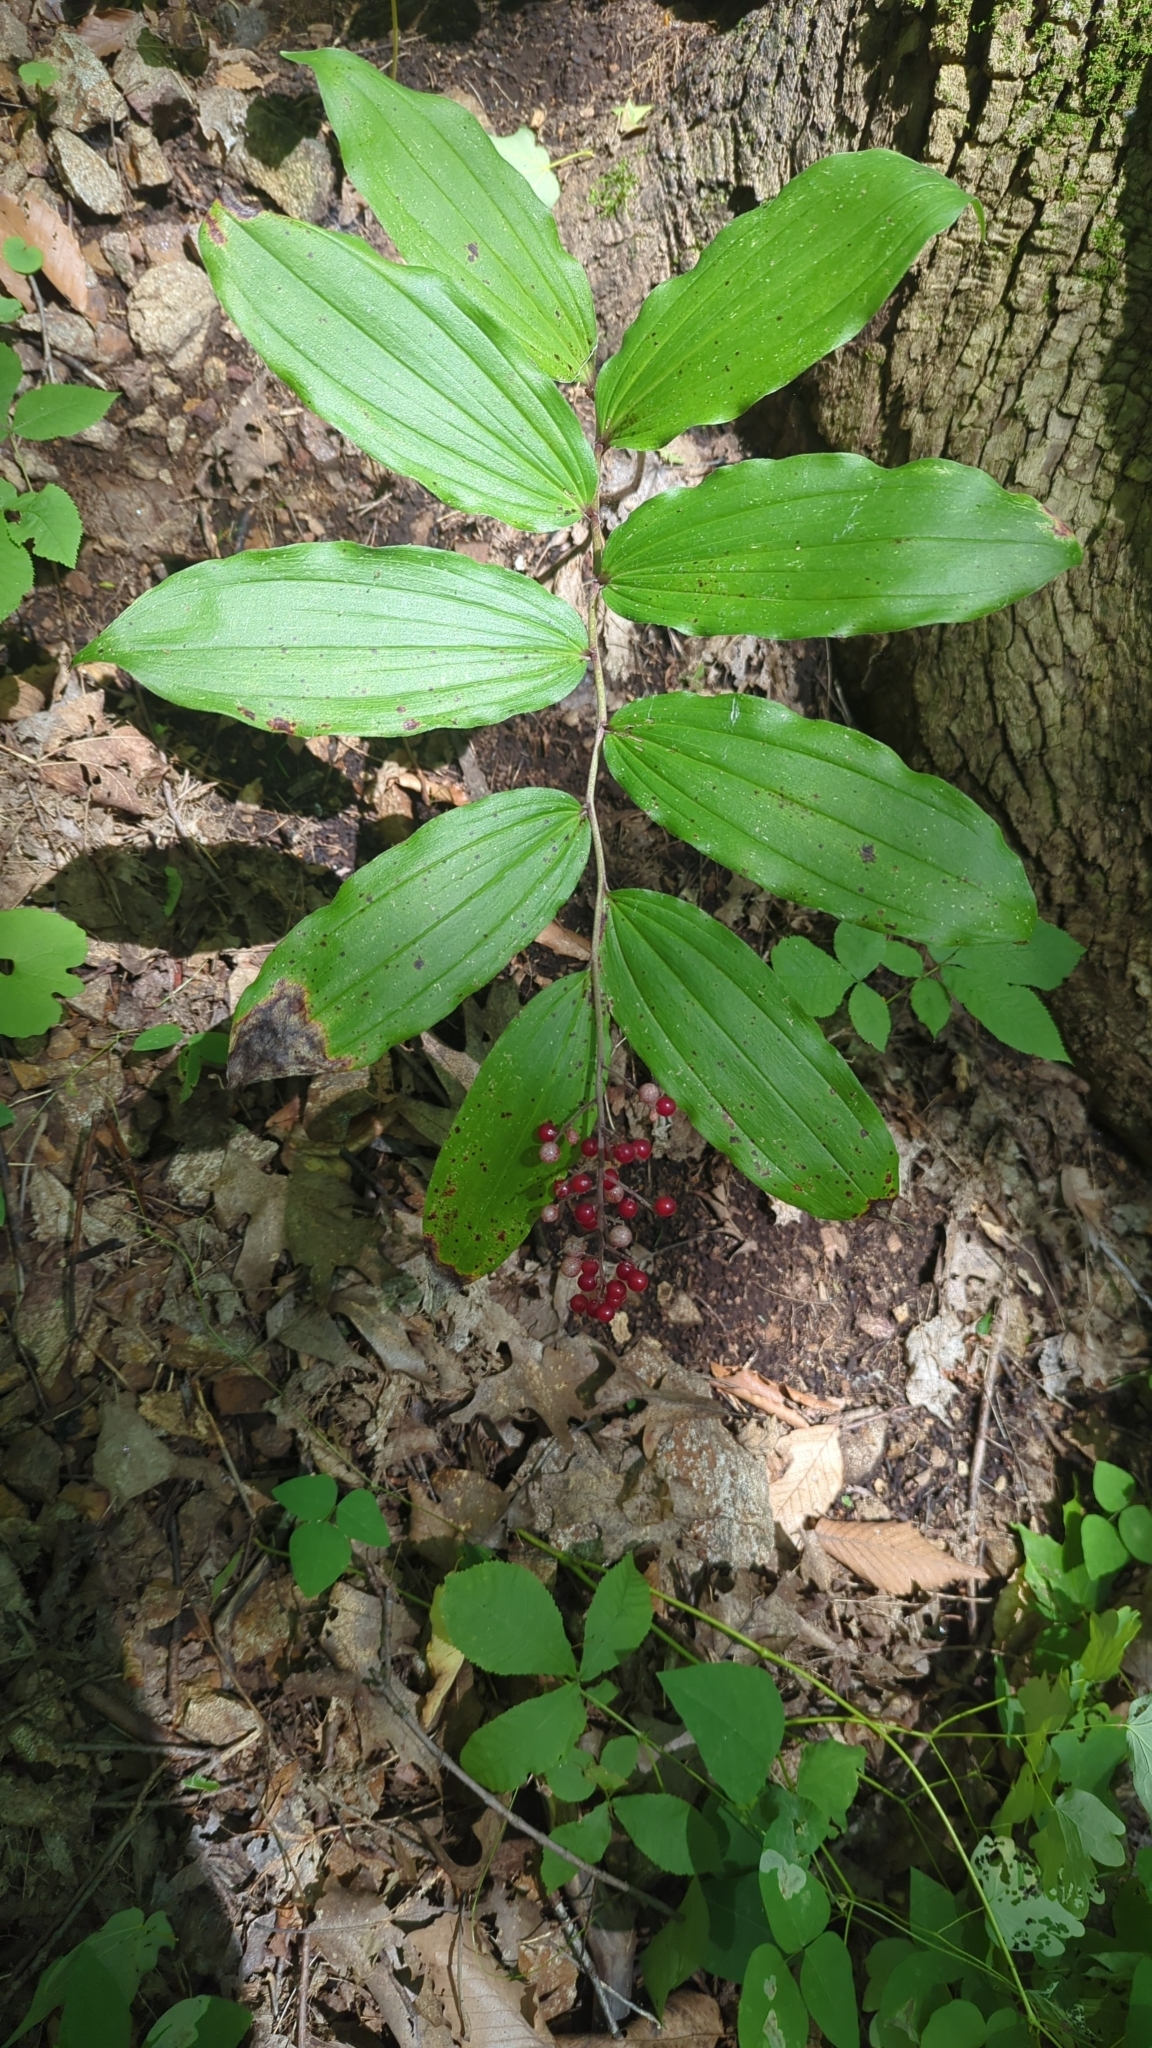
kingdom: Plantae
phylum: Tracheophyta
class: Liliopsida
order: Asparagales
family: Asparagaceae
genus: Maianthemum
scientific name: Maianthemum racemosum
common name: False spikenard
